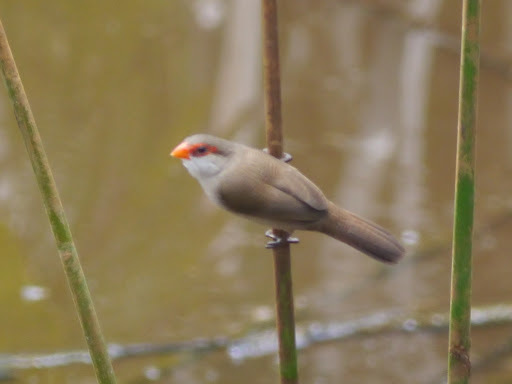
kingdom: Animalia
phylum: Chordata
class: Aves
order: Passeriformes
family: Estrildidae
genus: Estrilda
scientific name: Estrilda astrild
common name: Common waxbill
